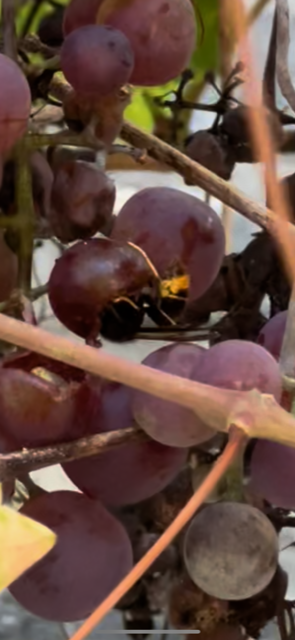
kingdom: Animalia
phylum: Arthropoda
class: Insecta
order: Hymenoptera
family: Vespidae
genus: Vespa
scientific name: Vespa velutina
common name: Asian hornet
